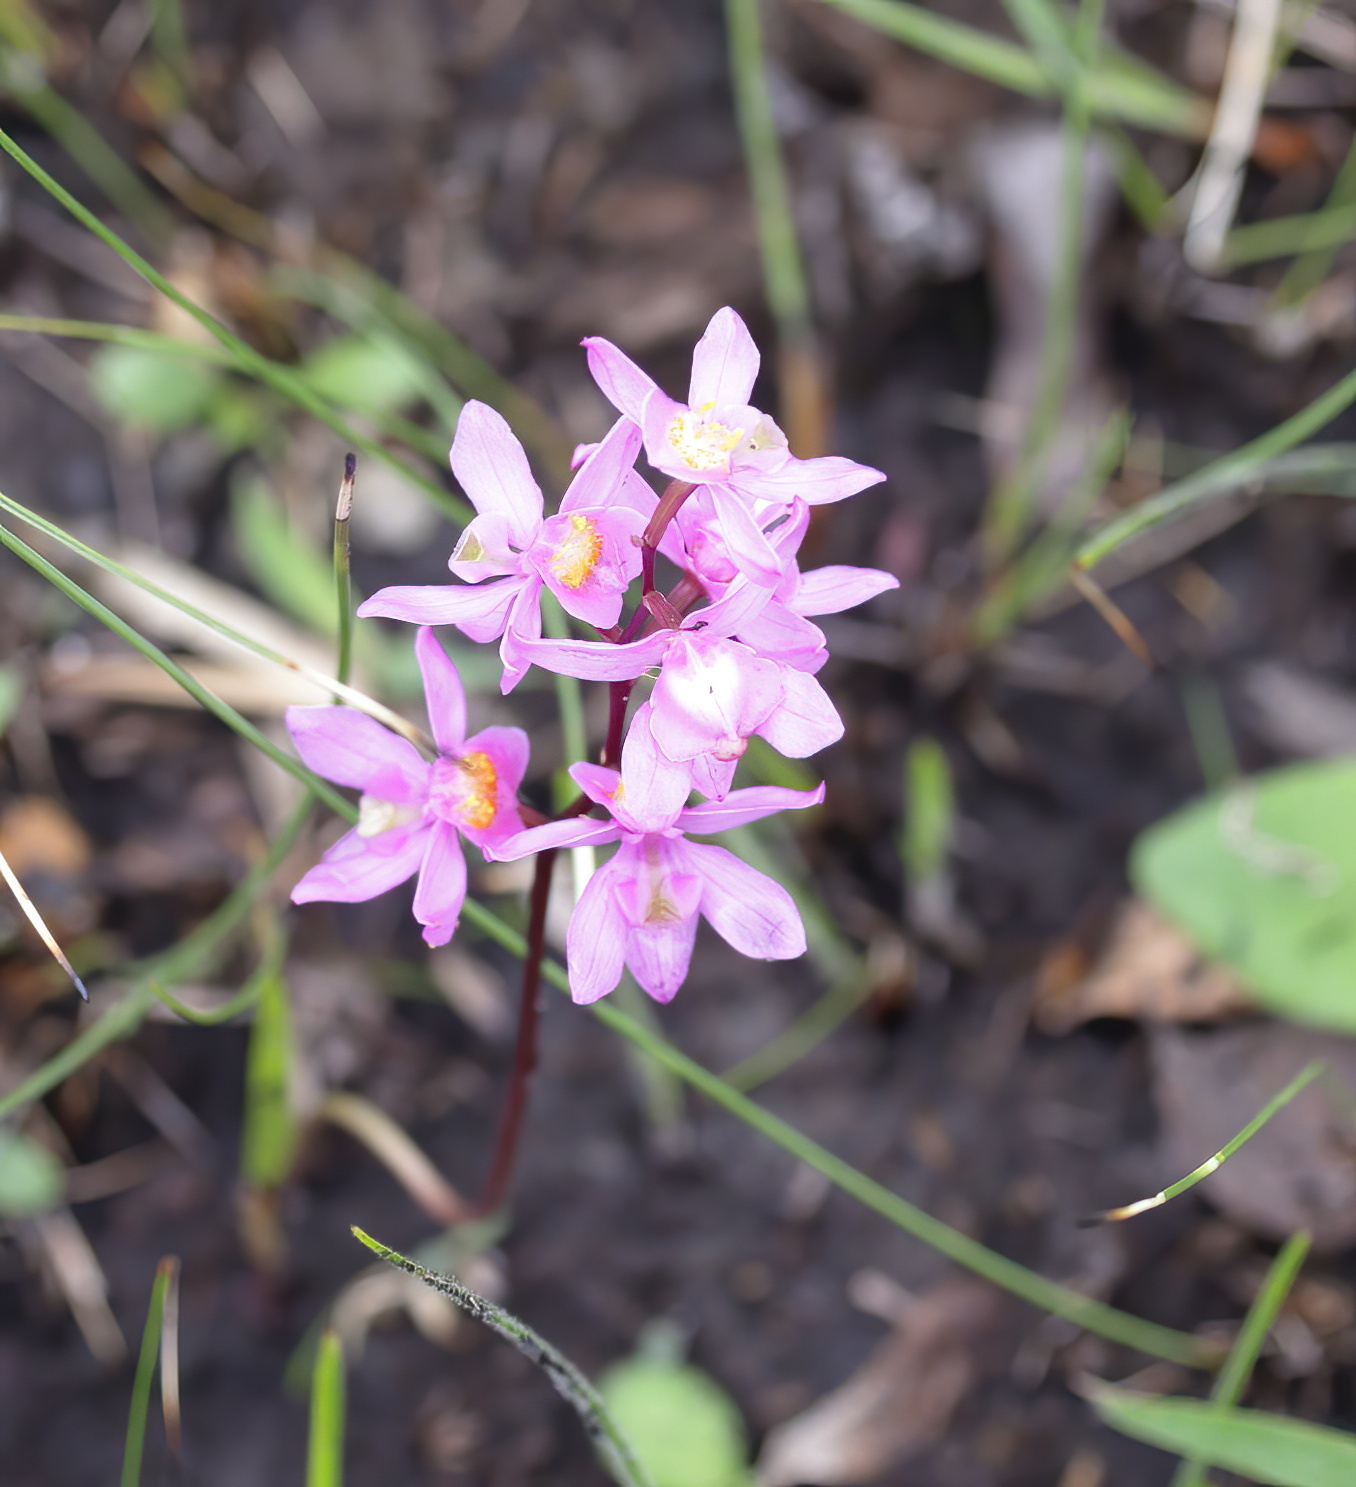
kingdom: Plantae
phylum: Tracheophyta
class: Liliopsida
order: Asparagales
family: Orchidaceae
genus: Calopogon
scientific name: Calopogon multiflorus
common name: Many-flowered grass-pink orchid
